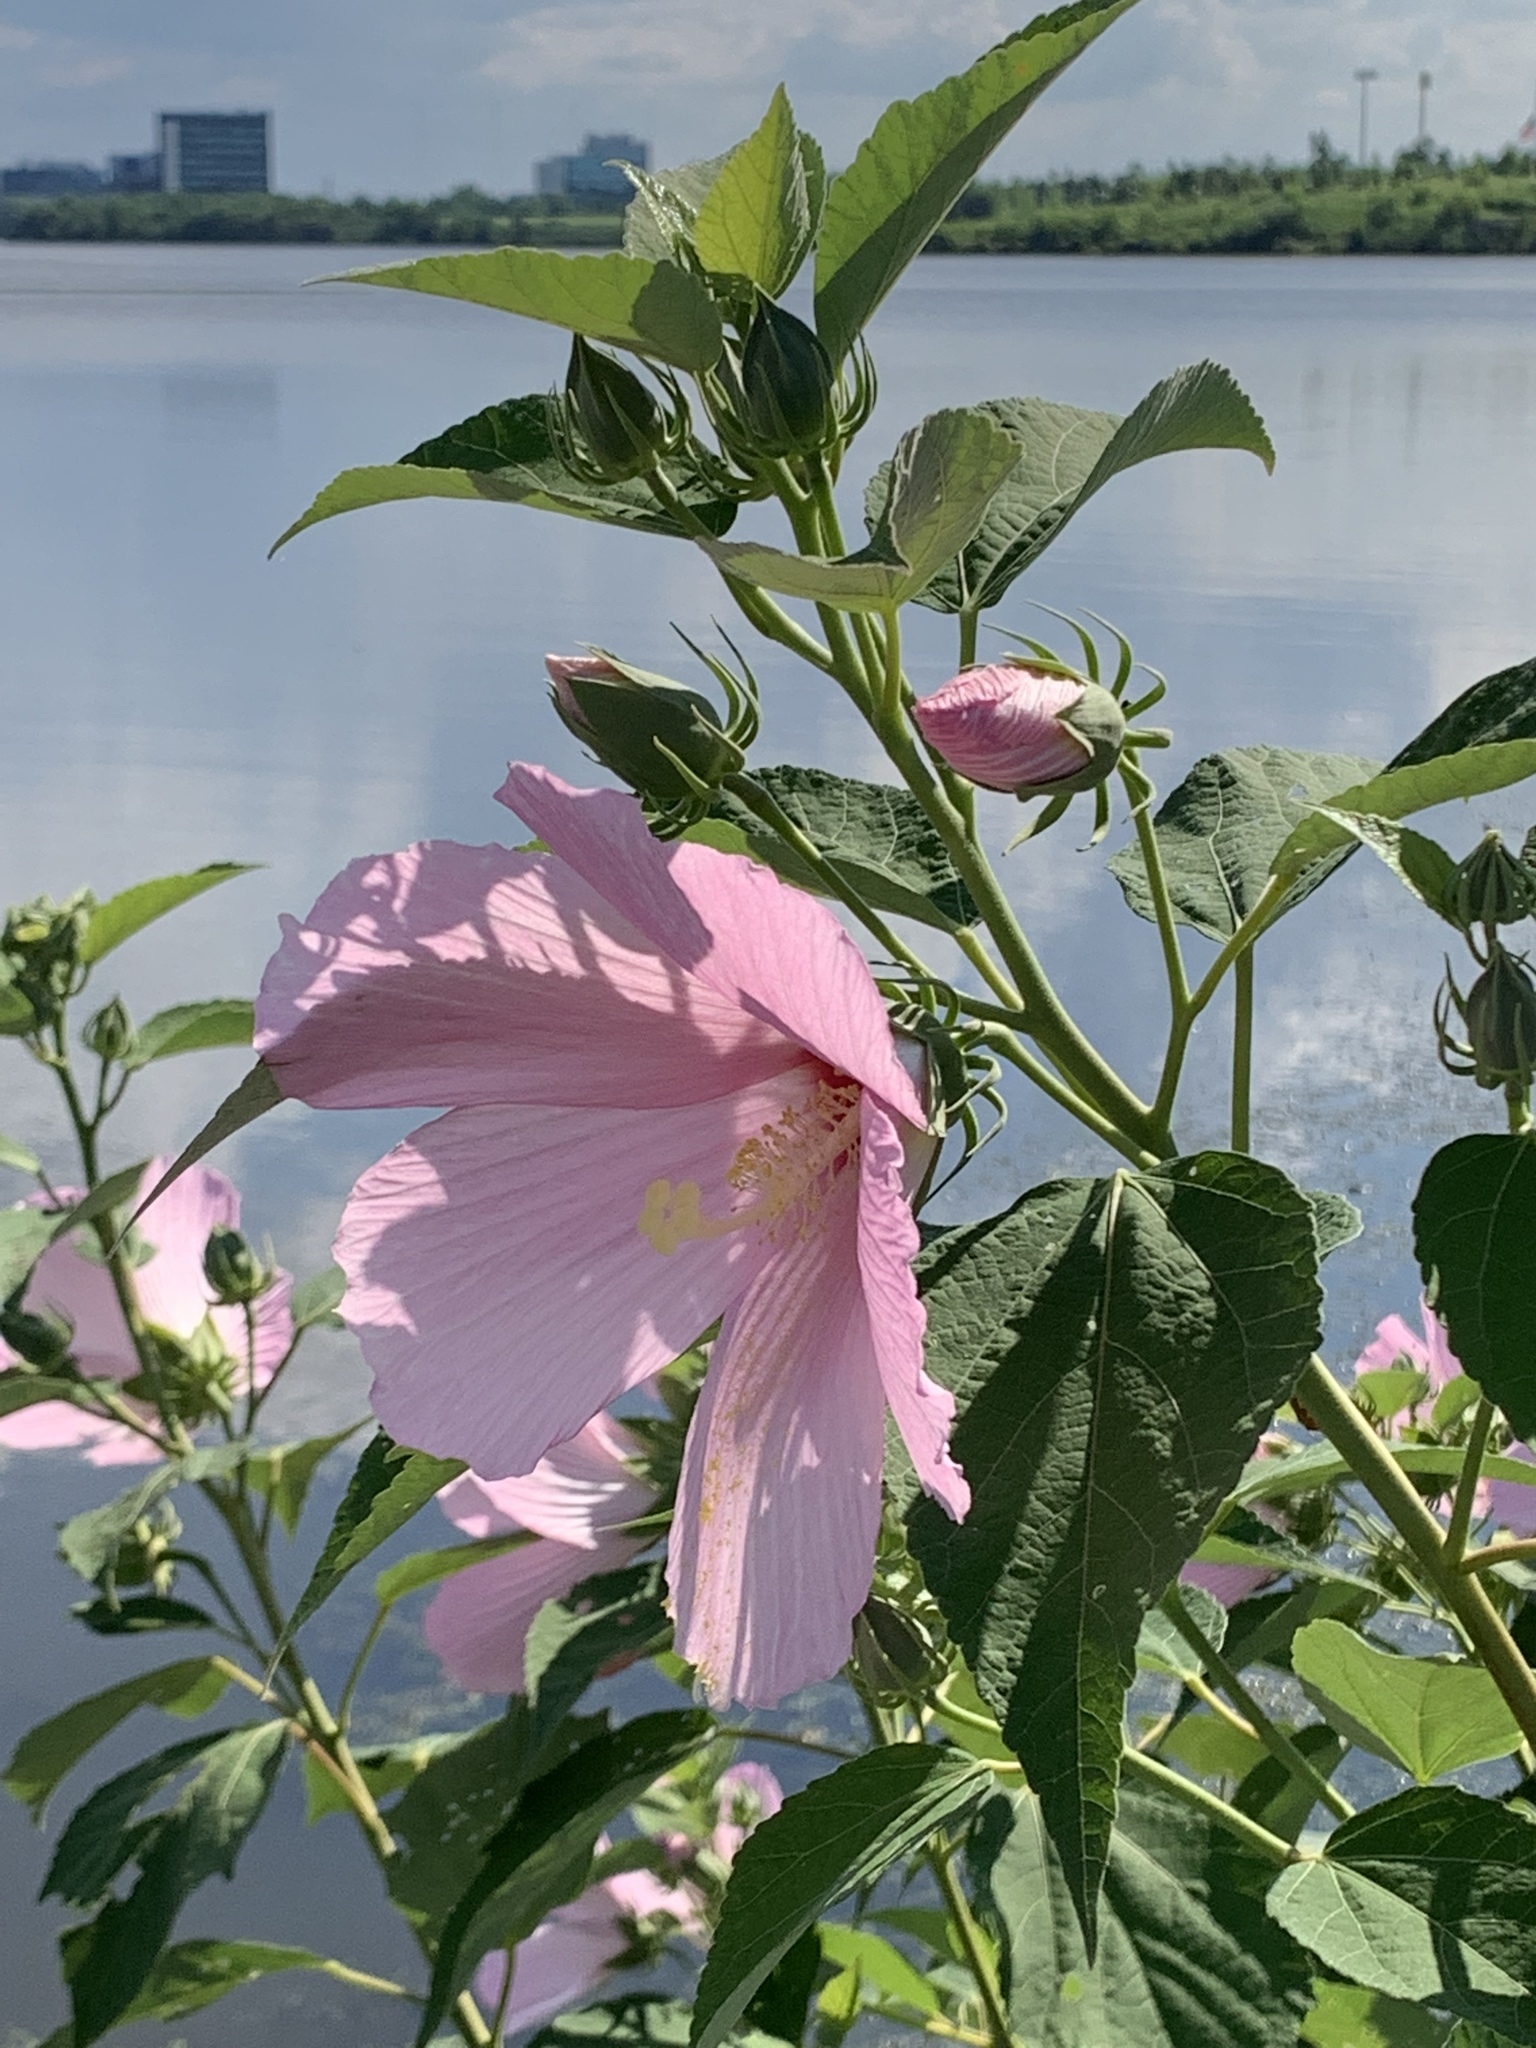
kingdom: Plantae
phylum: Tracheophyta
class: Magnoliopsida
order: Malvales
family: Malvaceae
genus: Hibiscus
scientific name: Hibiscus moscheutos
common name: Common rose-mallow
